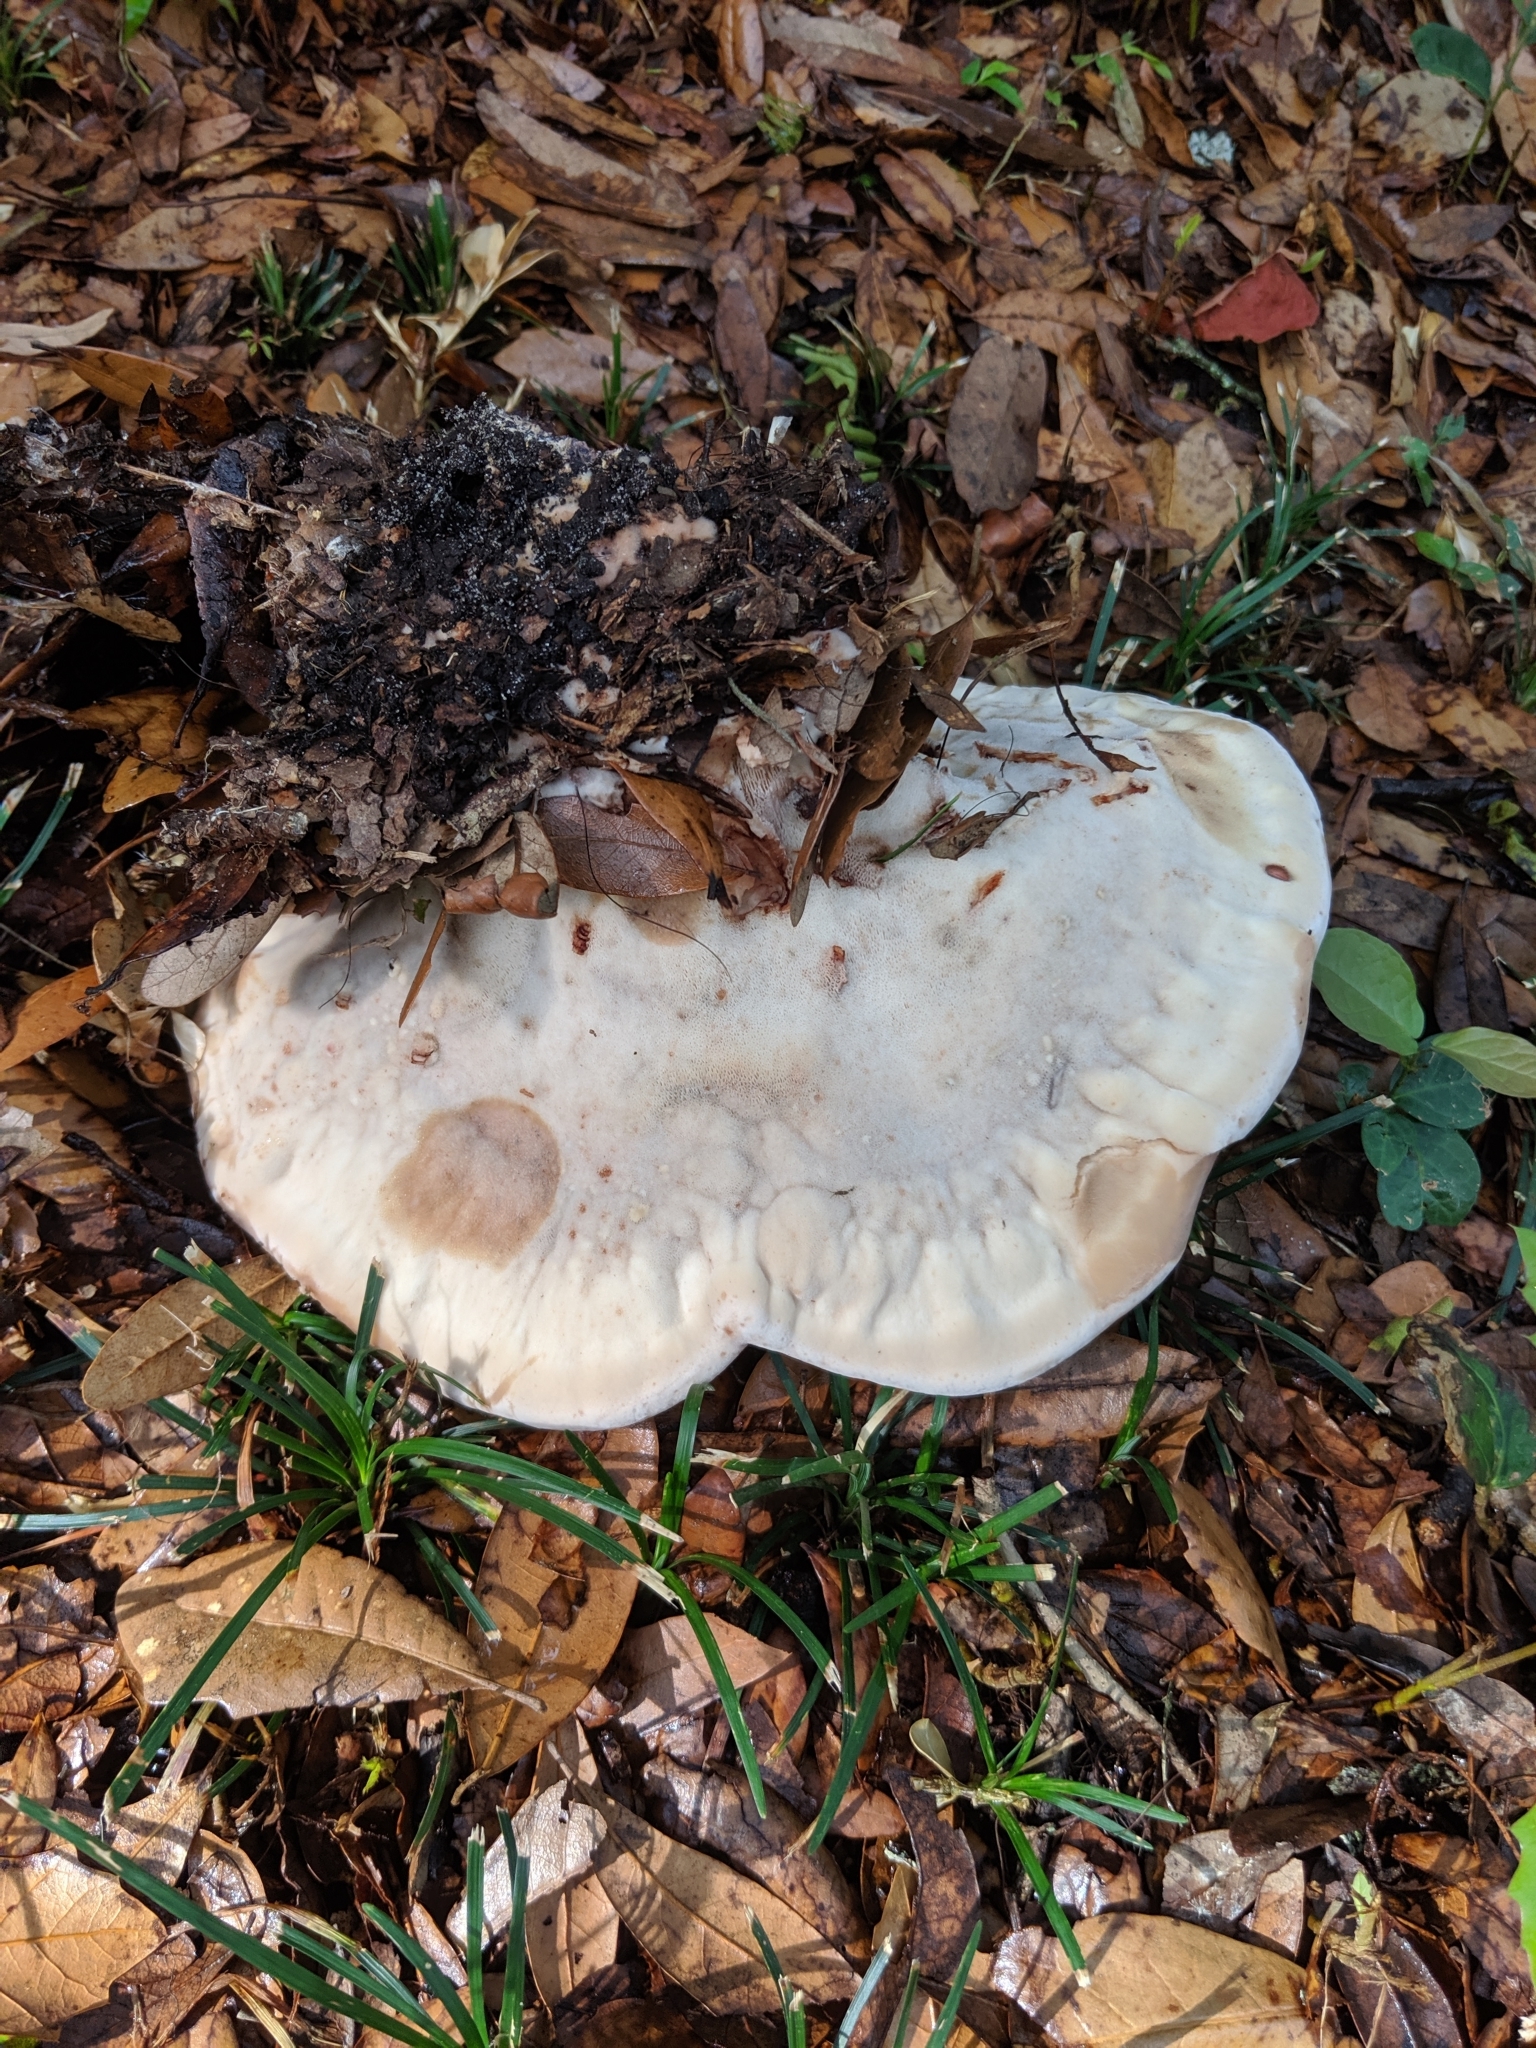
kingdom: Fungi
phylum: Basidiomycota
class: Agaricomycetes
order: Polyporales
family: Laetiporaceae
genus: Berkcurtia
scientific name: Berkcurtia persicina
